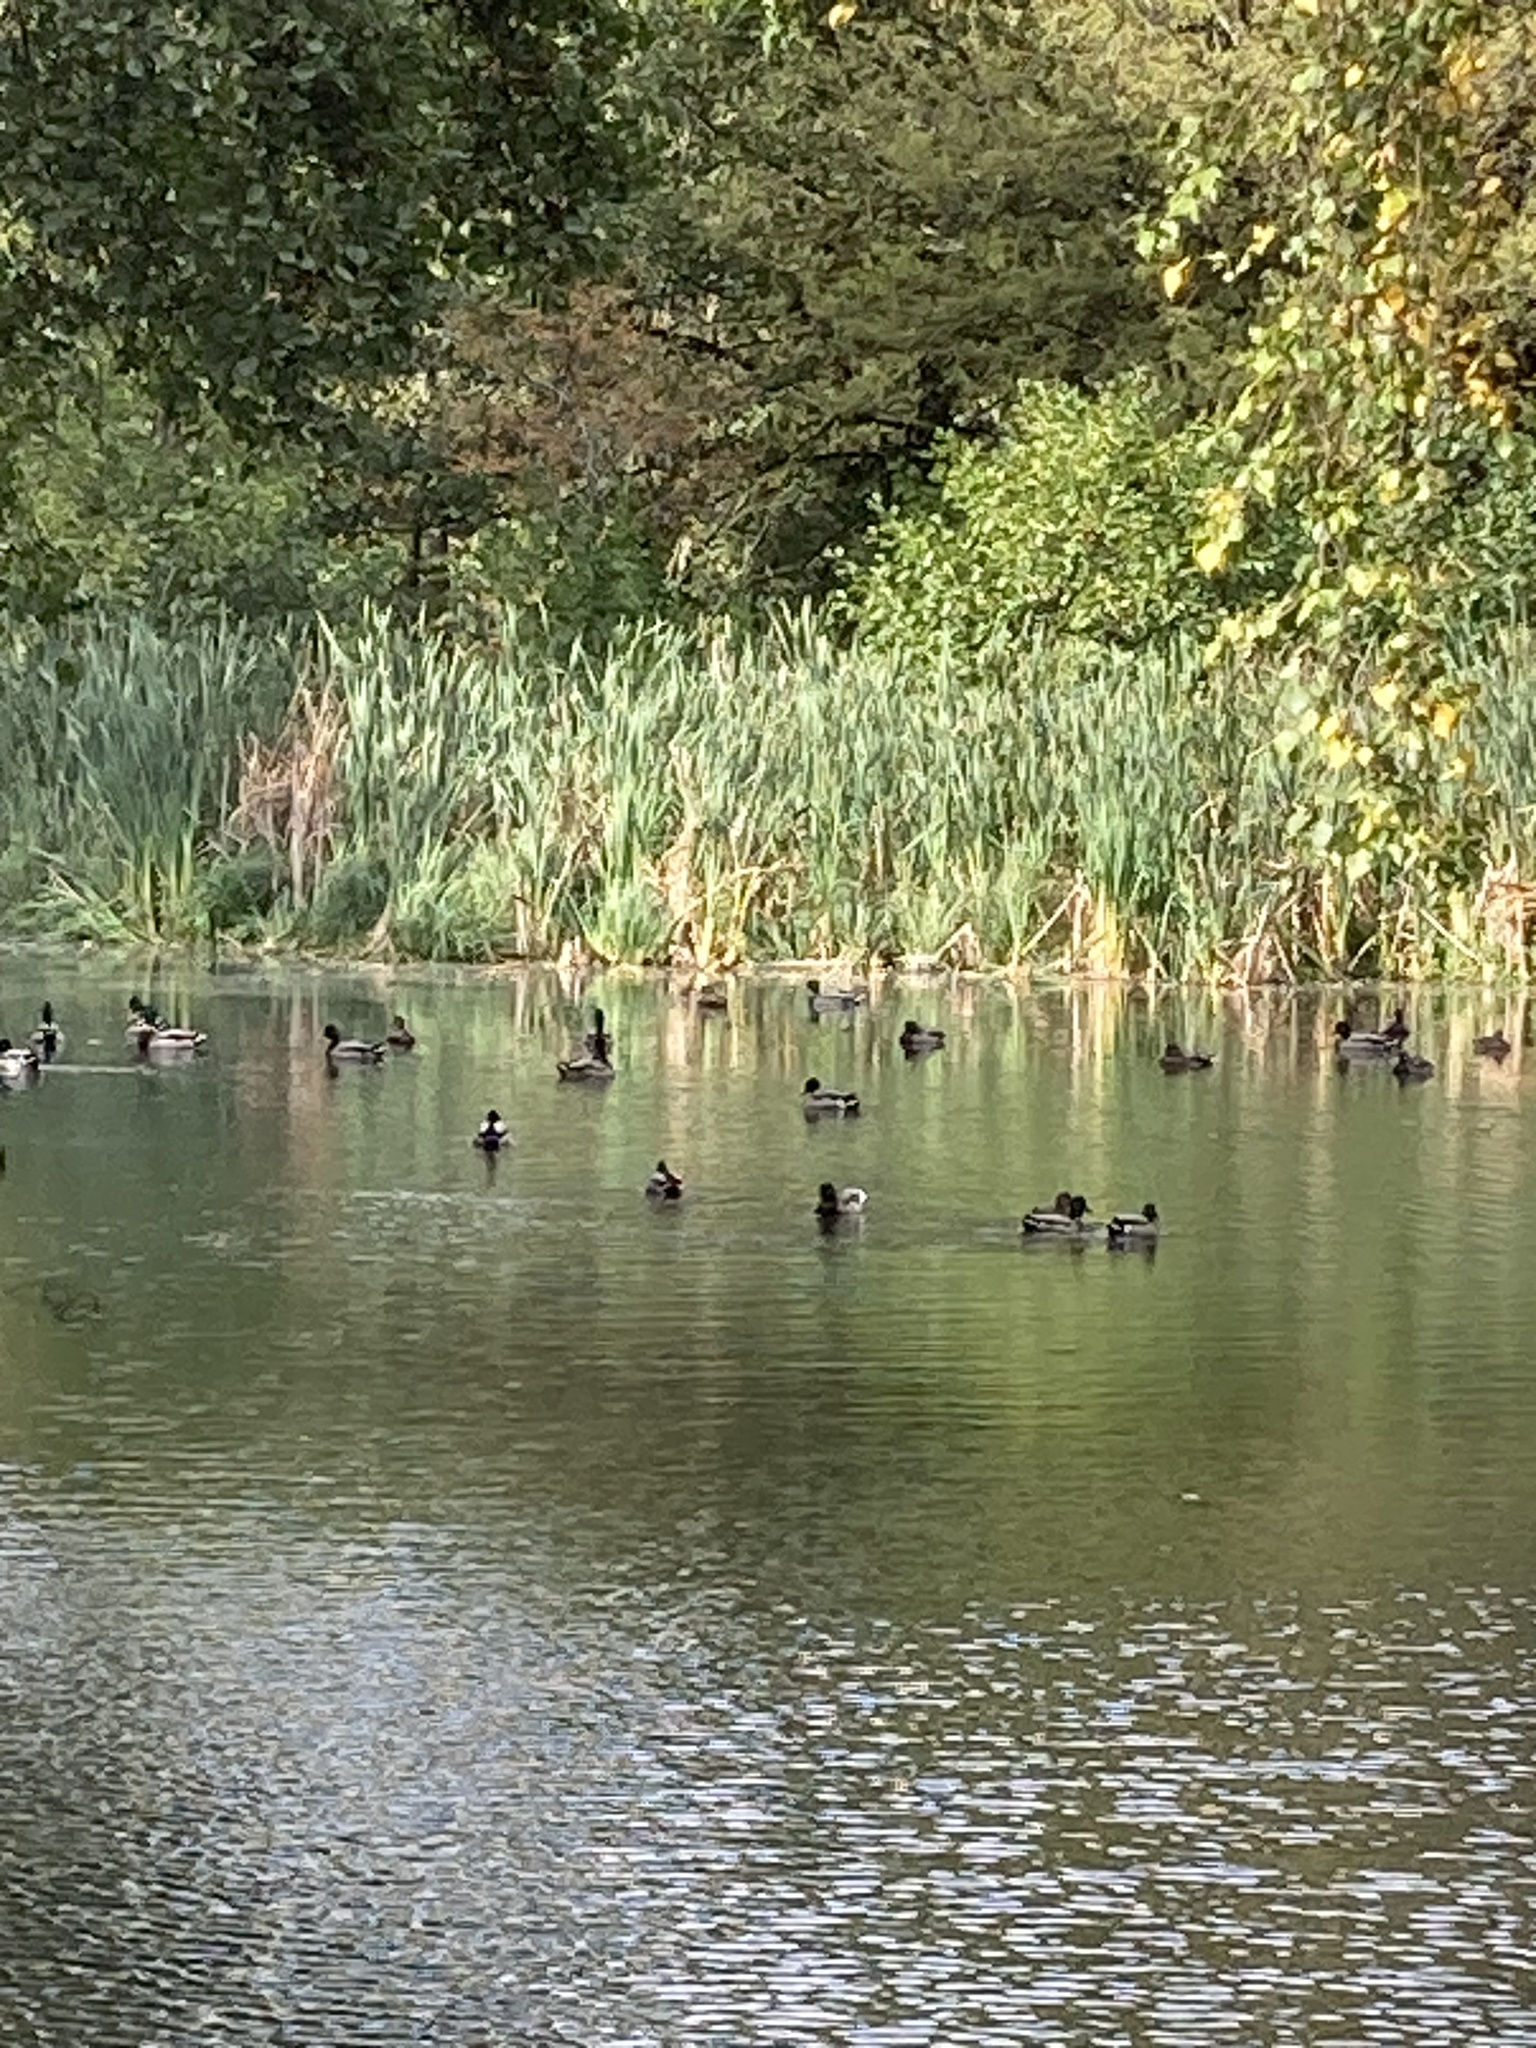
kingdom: Animalia
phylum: Chordata
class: Aves
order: Anseriformes
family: Anatidae
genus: Anas
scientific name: Anas platyrhynchos
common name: Mallard
